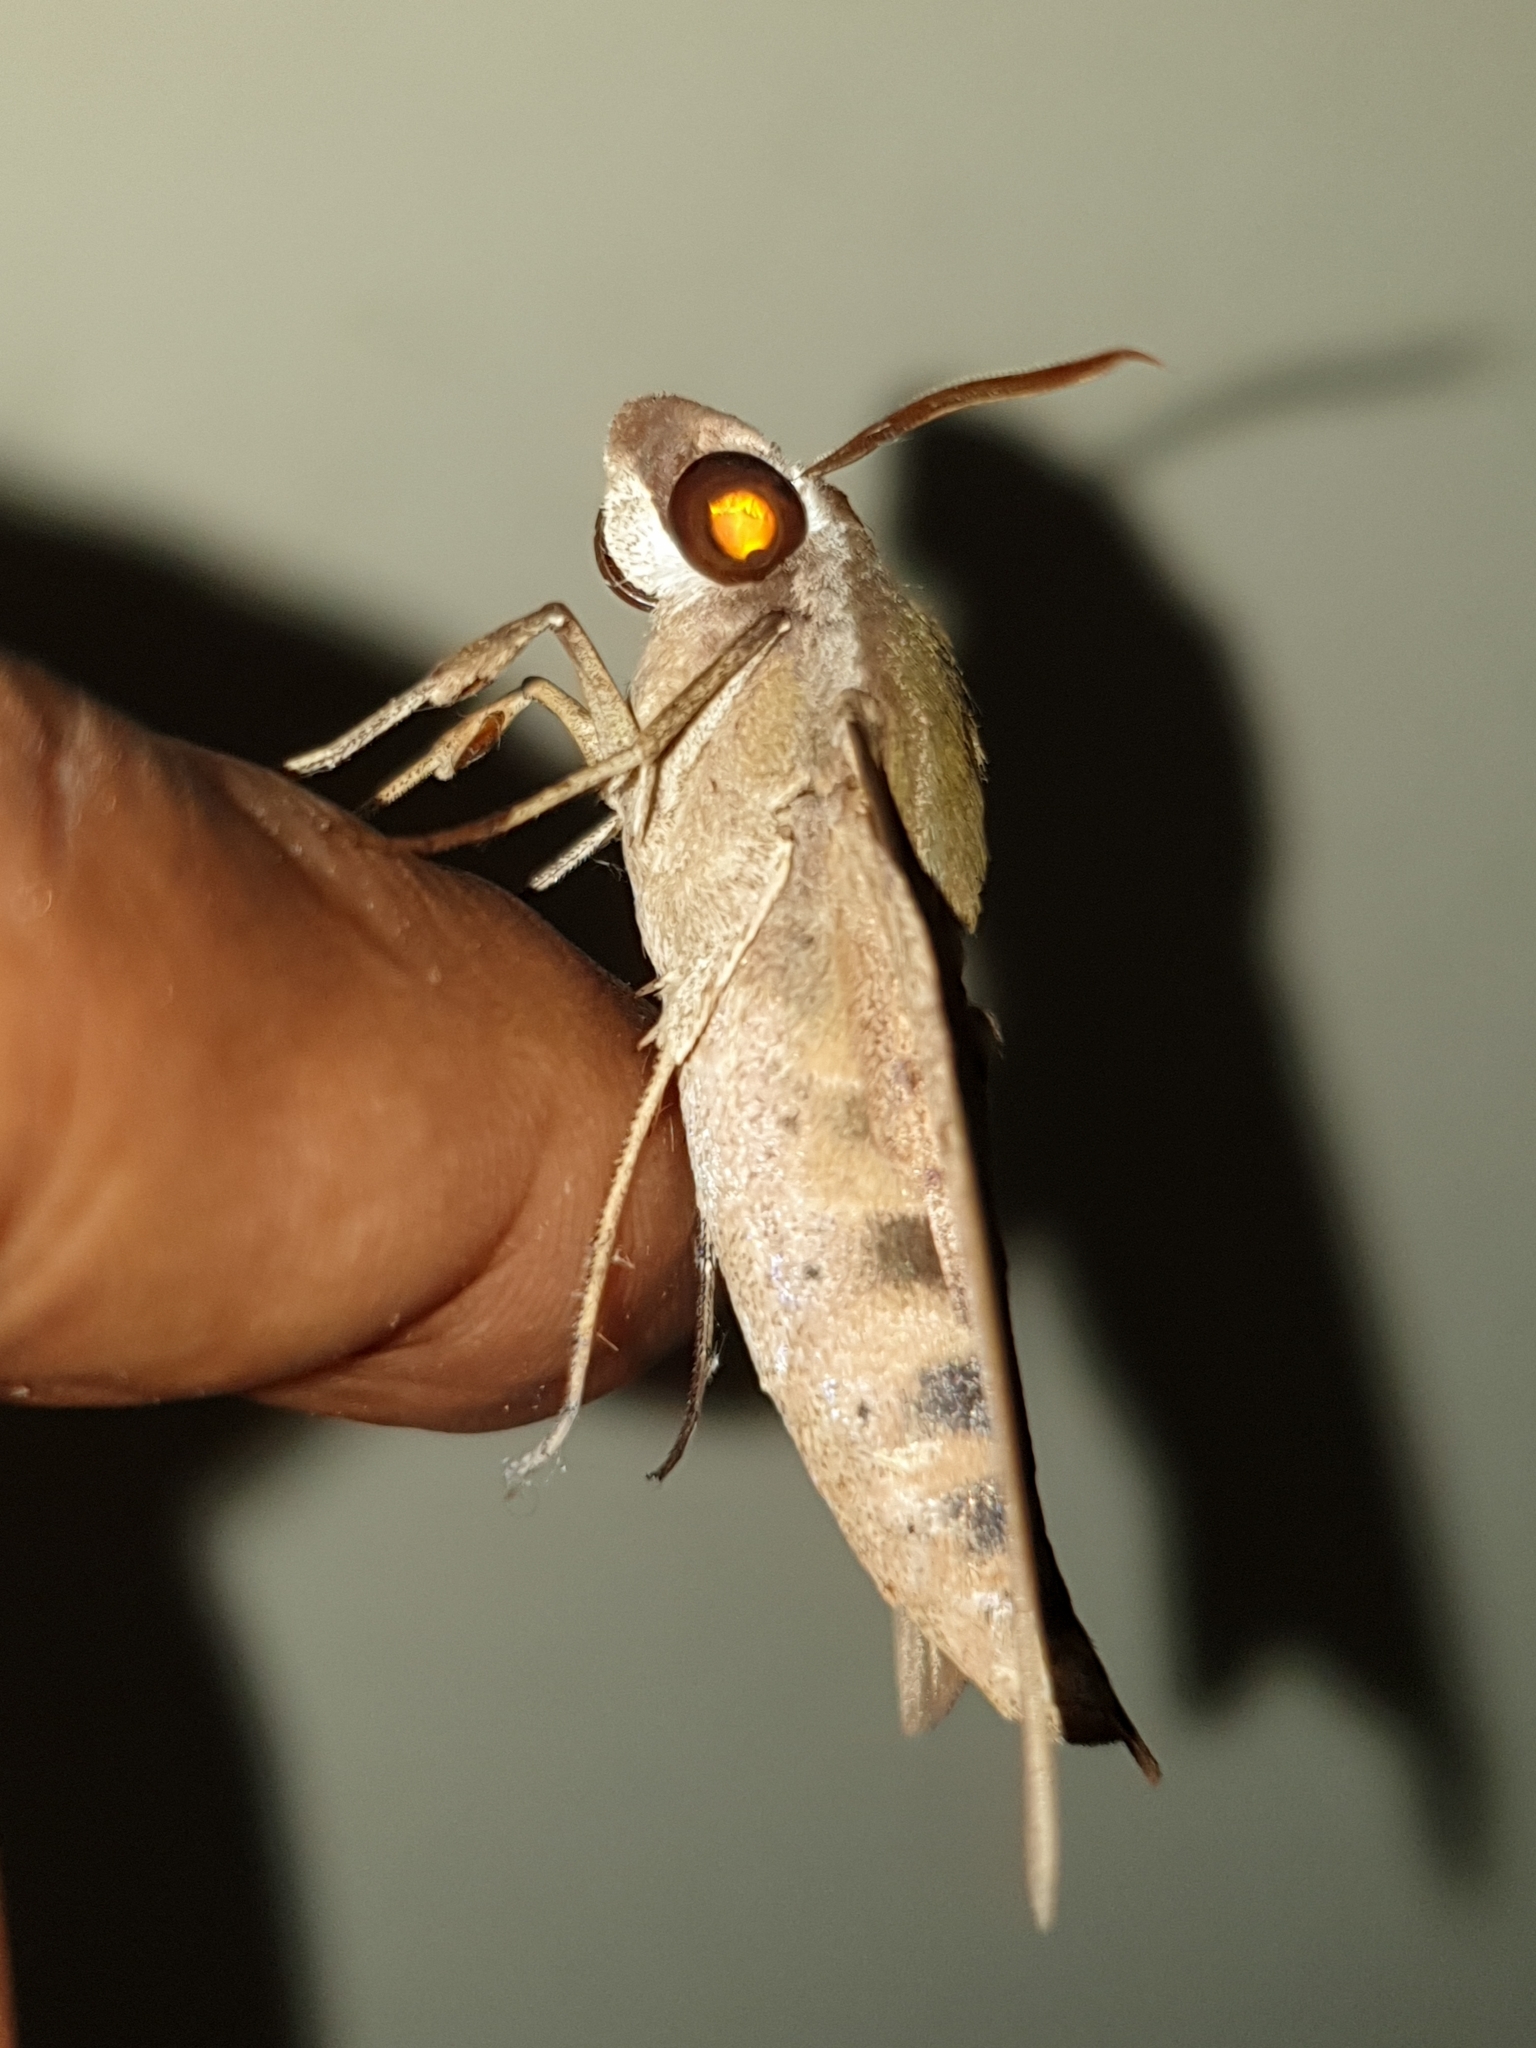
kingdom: Animalia
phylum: Arthropoda
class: Insecta
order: Lepidoptera
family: Sphingidae
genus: Nephele
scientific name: Nephele hespera
